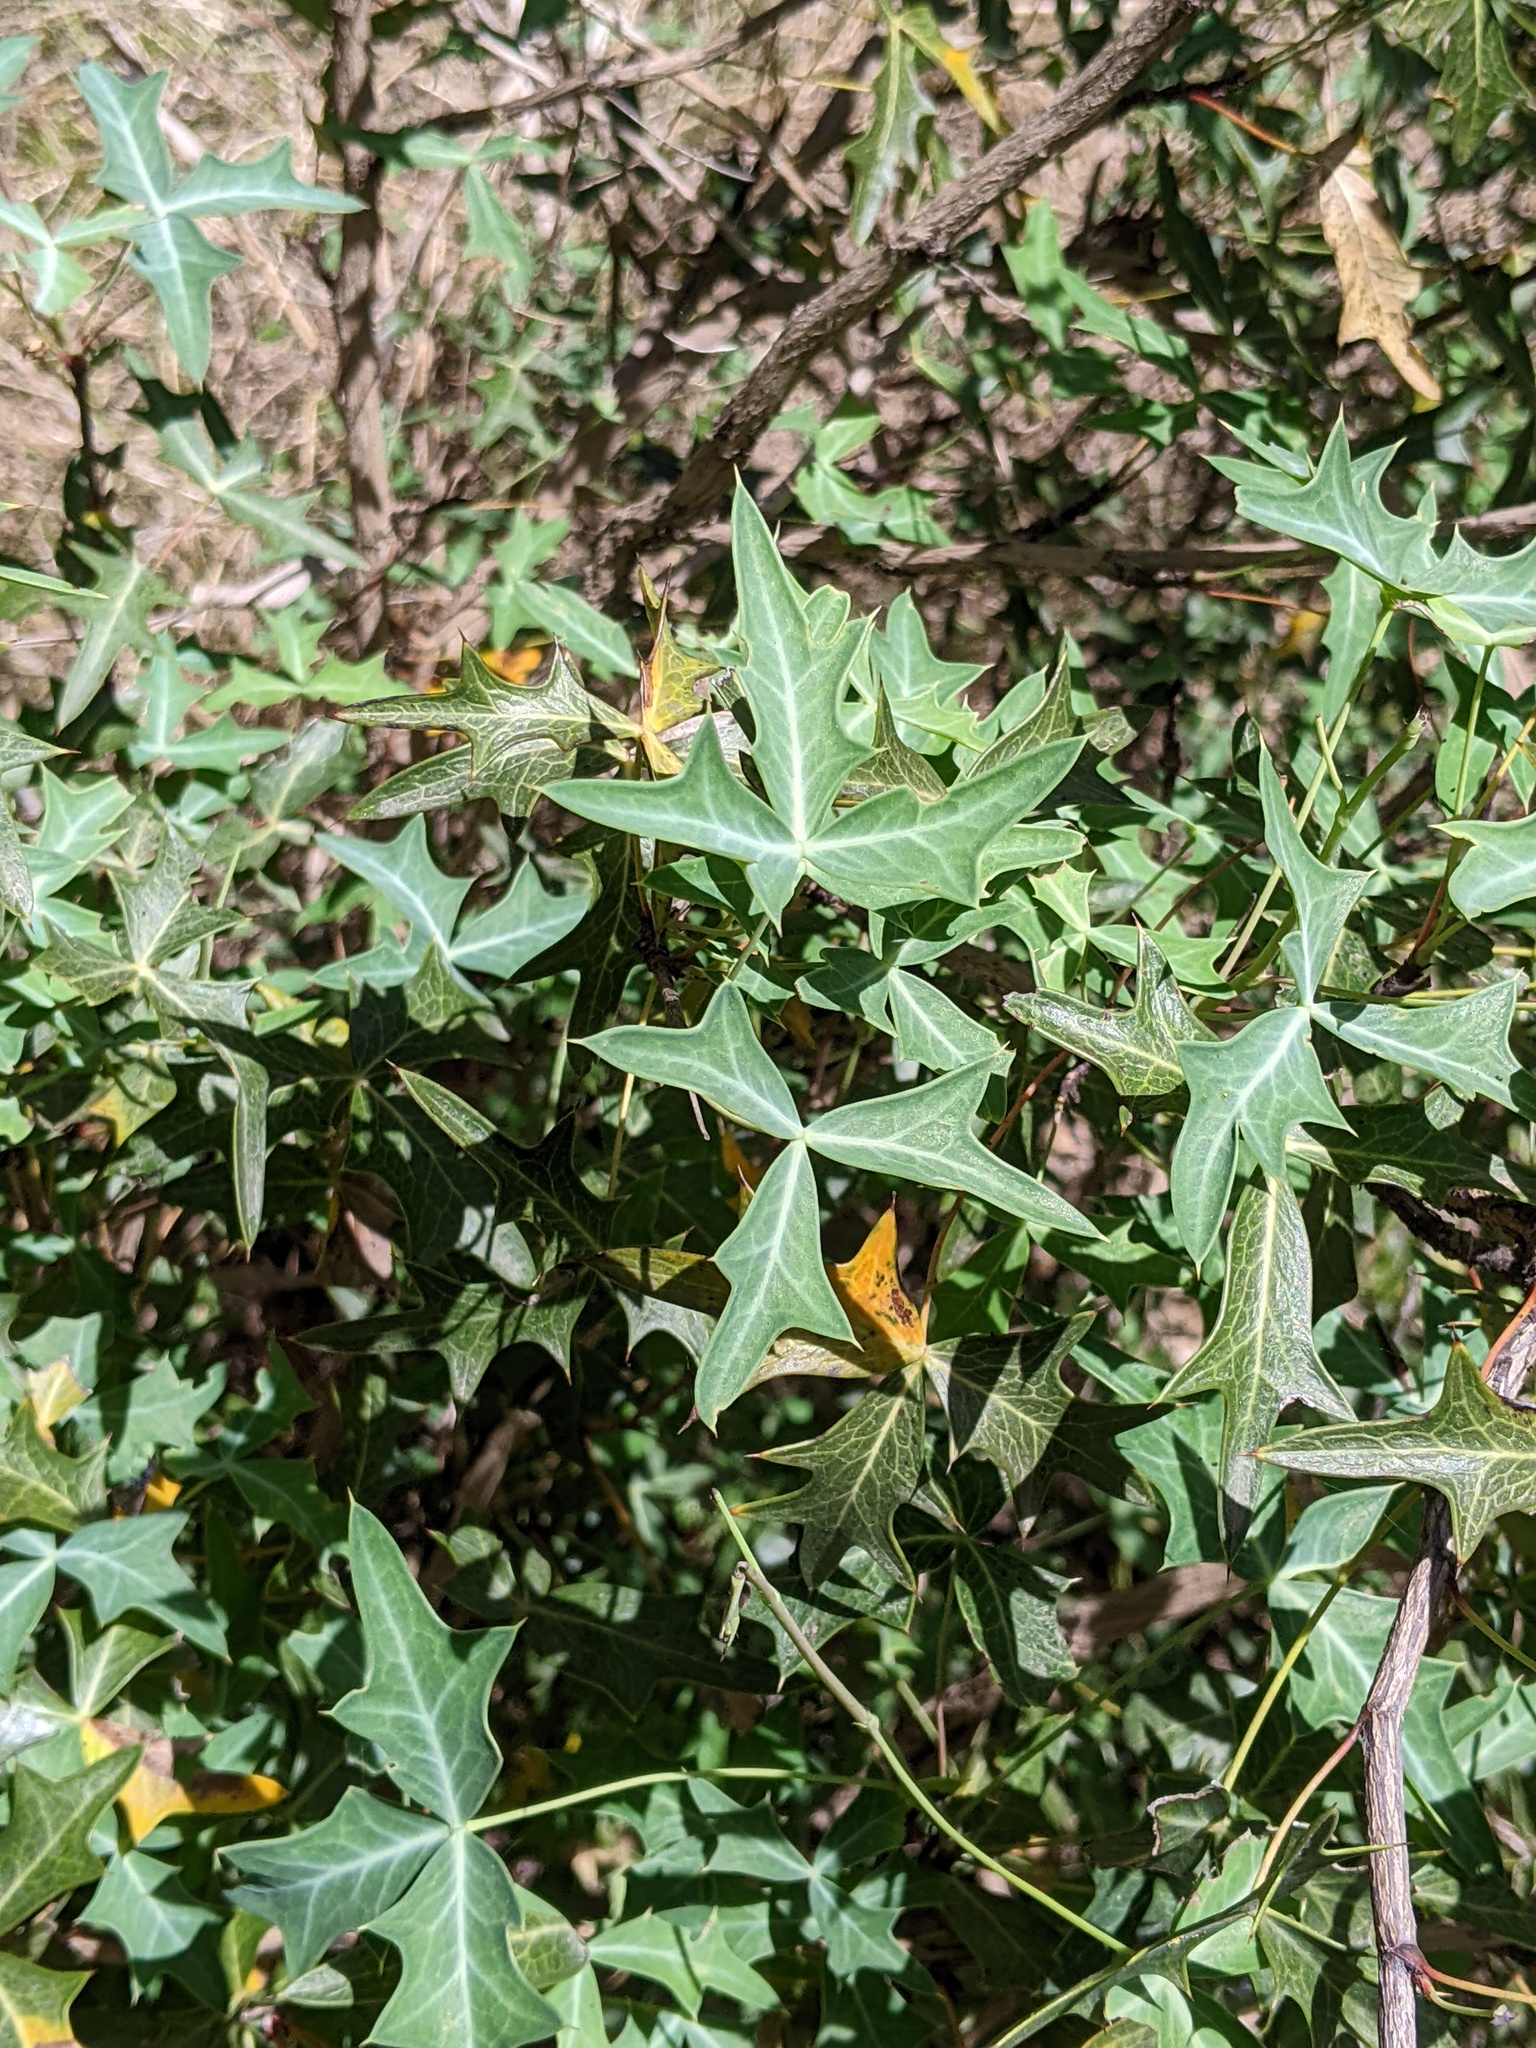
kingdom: Plantae
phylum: Tracheophyta
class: Magnoliopsida
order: Ranunculales
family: Berberidaceae
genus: Alloberberis
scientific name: Alloberberis trifoliolata
